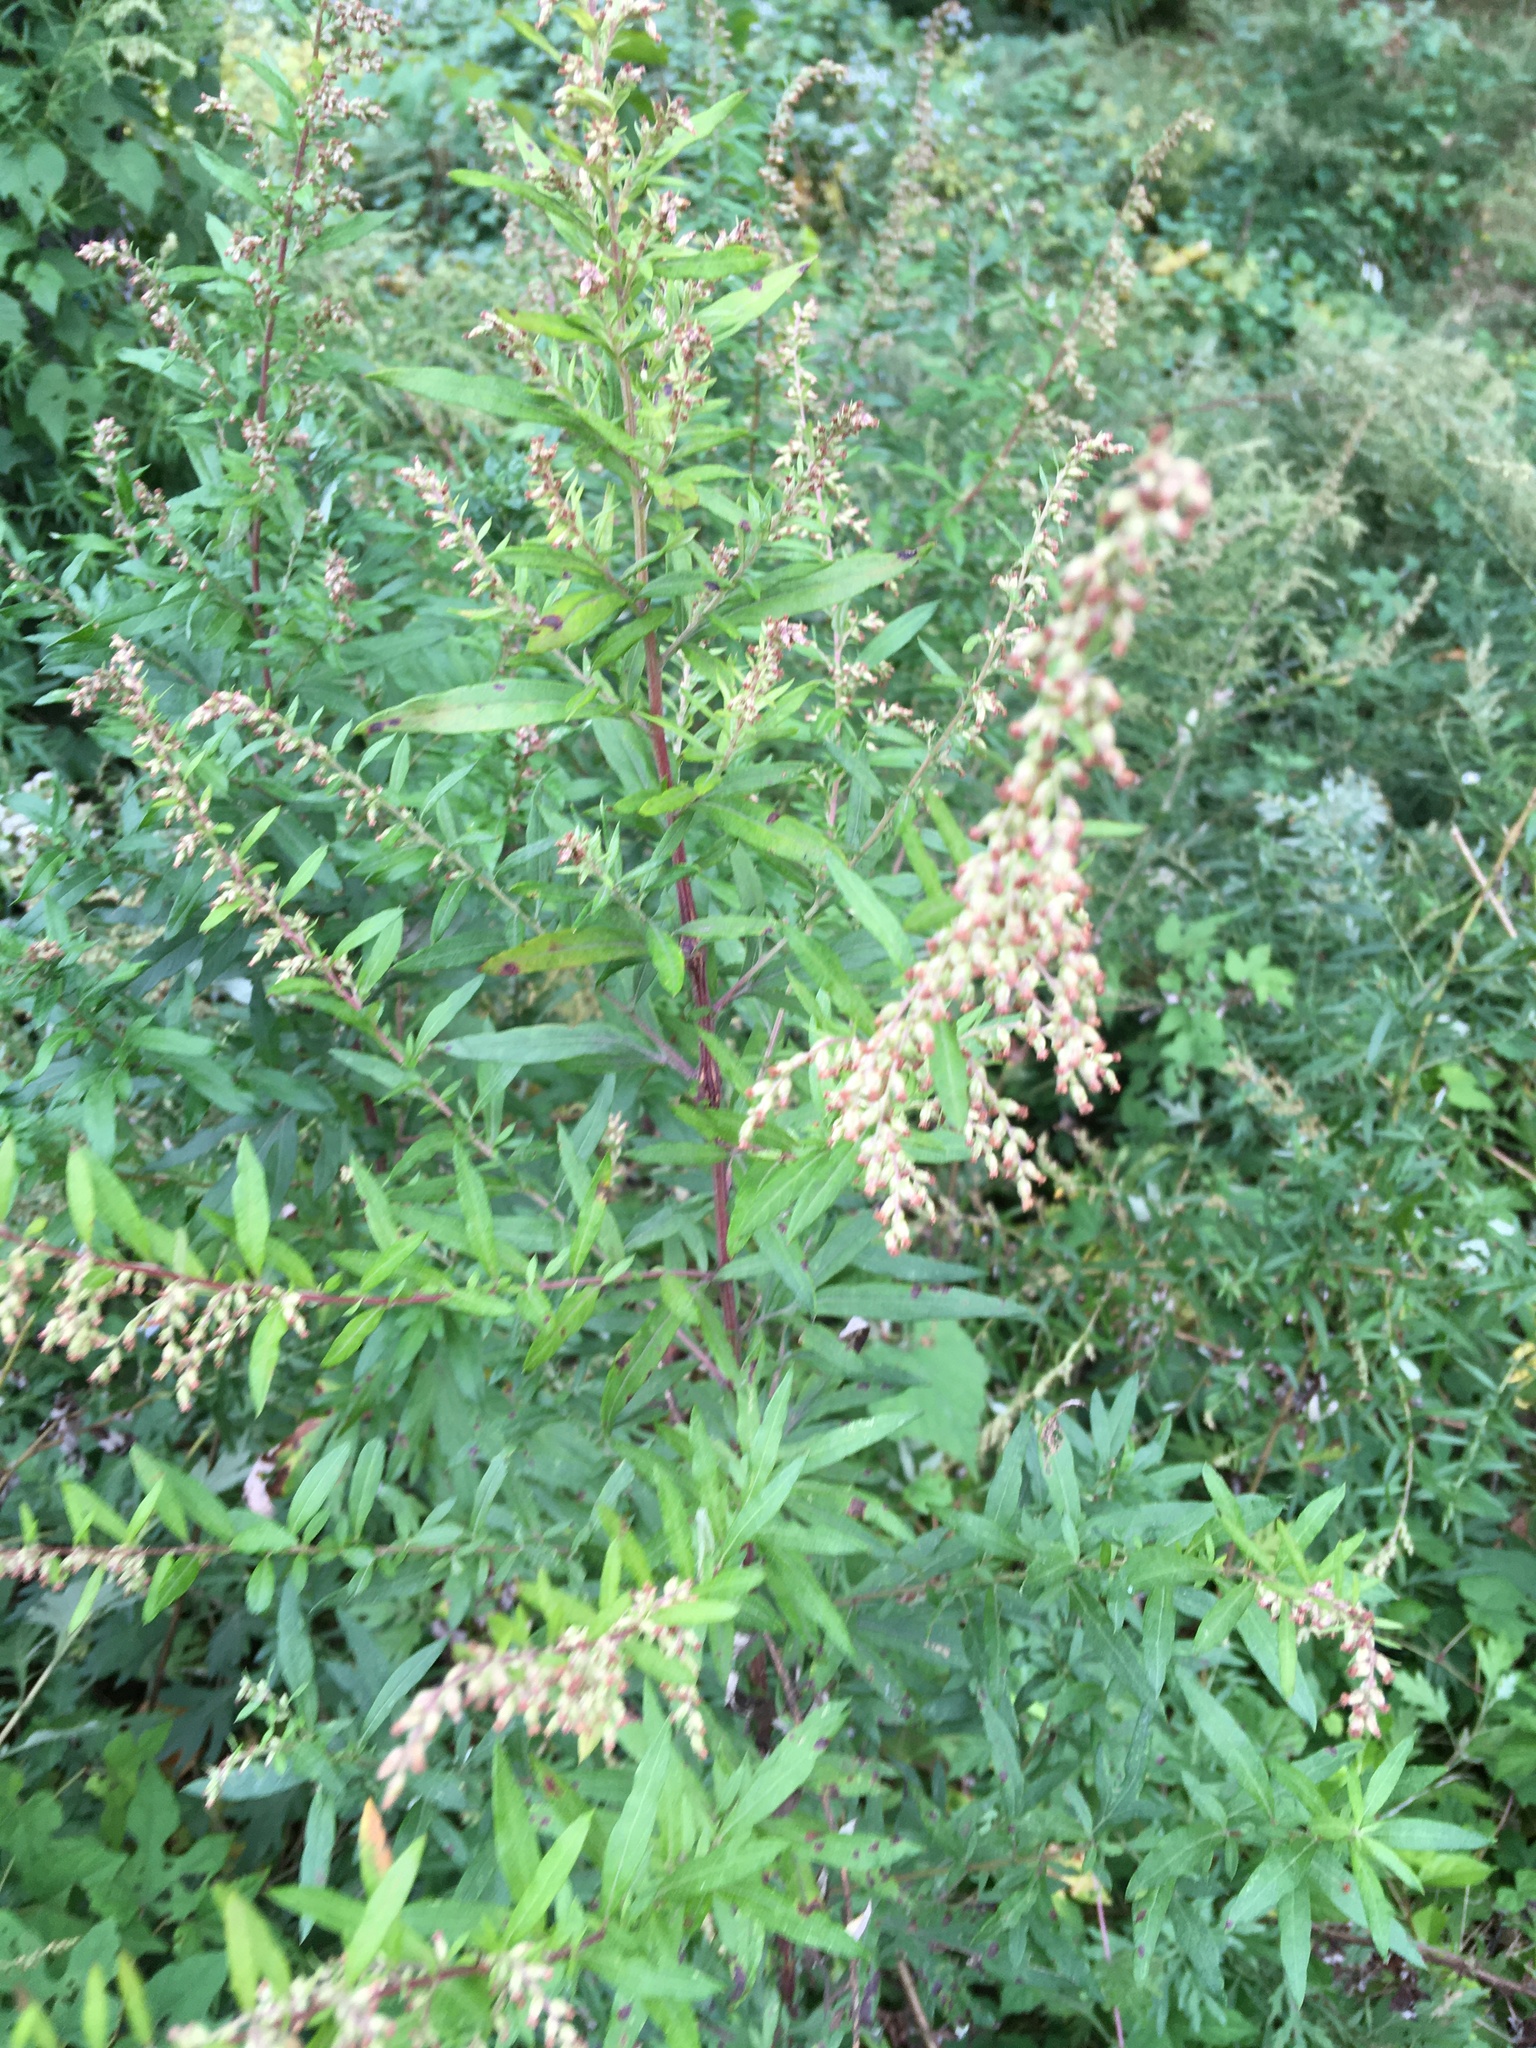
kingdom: Plantae
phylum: Tracheophyta
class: Magnoliopsida
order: Asterales
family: Asteraceae
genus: Artemisia
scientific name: Artemisia vulgaris
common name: Mugwort
